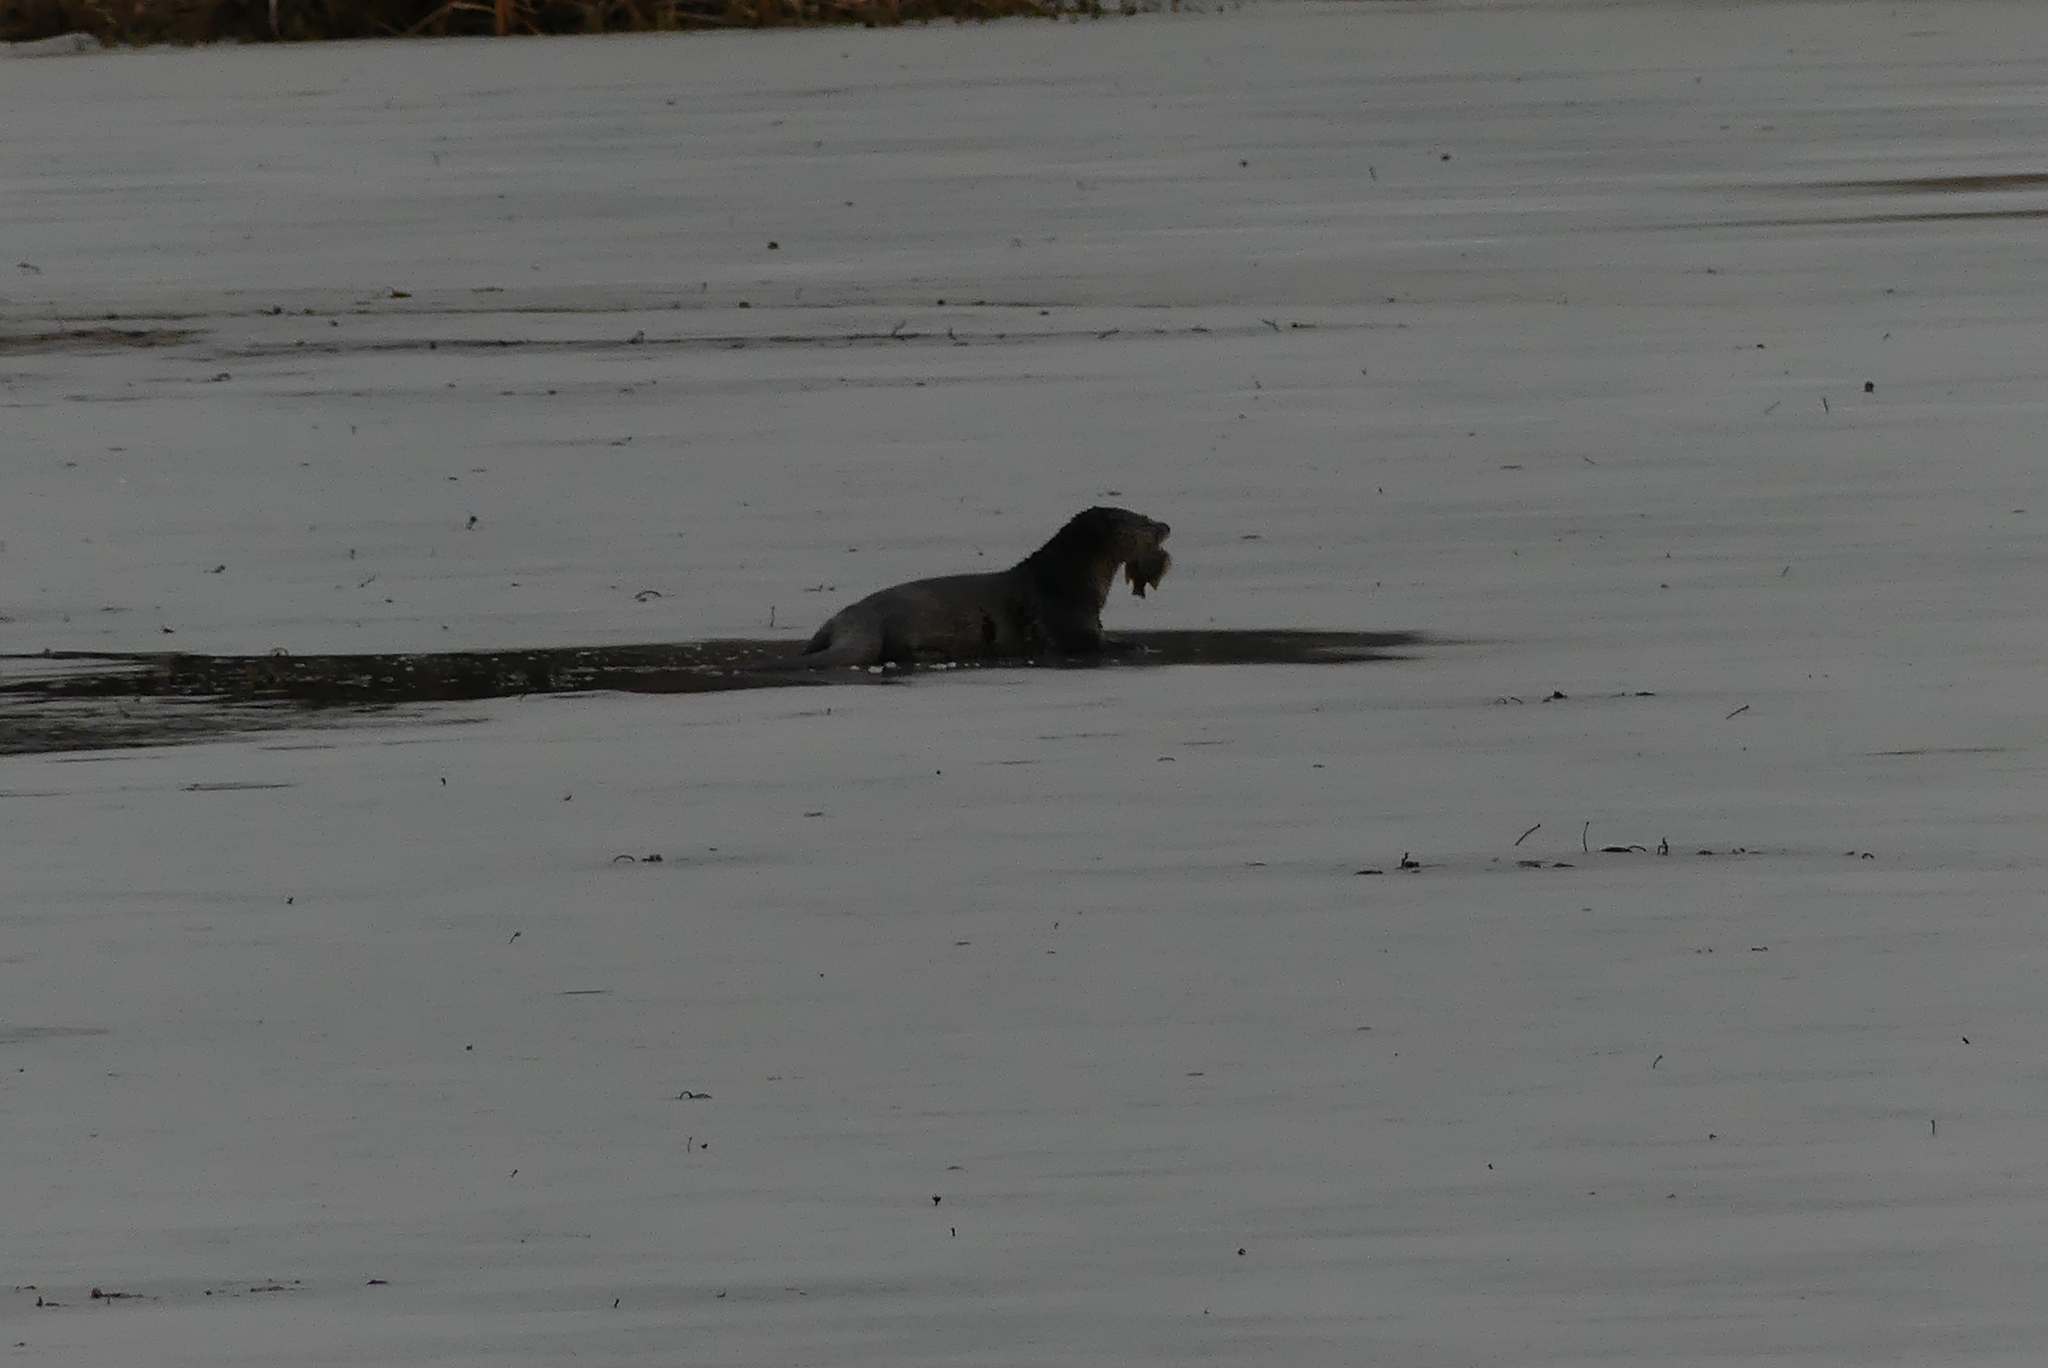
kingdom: Animalia
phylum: Chordata
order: Perciformes
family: Centrarchidae
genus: Lepomis
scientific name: Lepomis gibbosus
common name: Pumpkinseed
